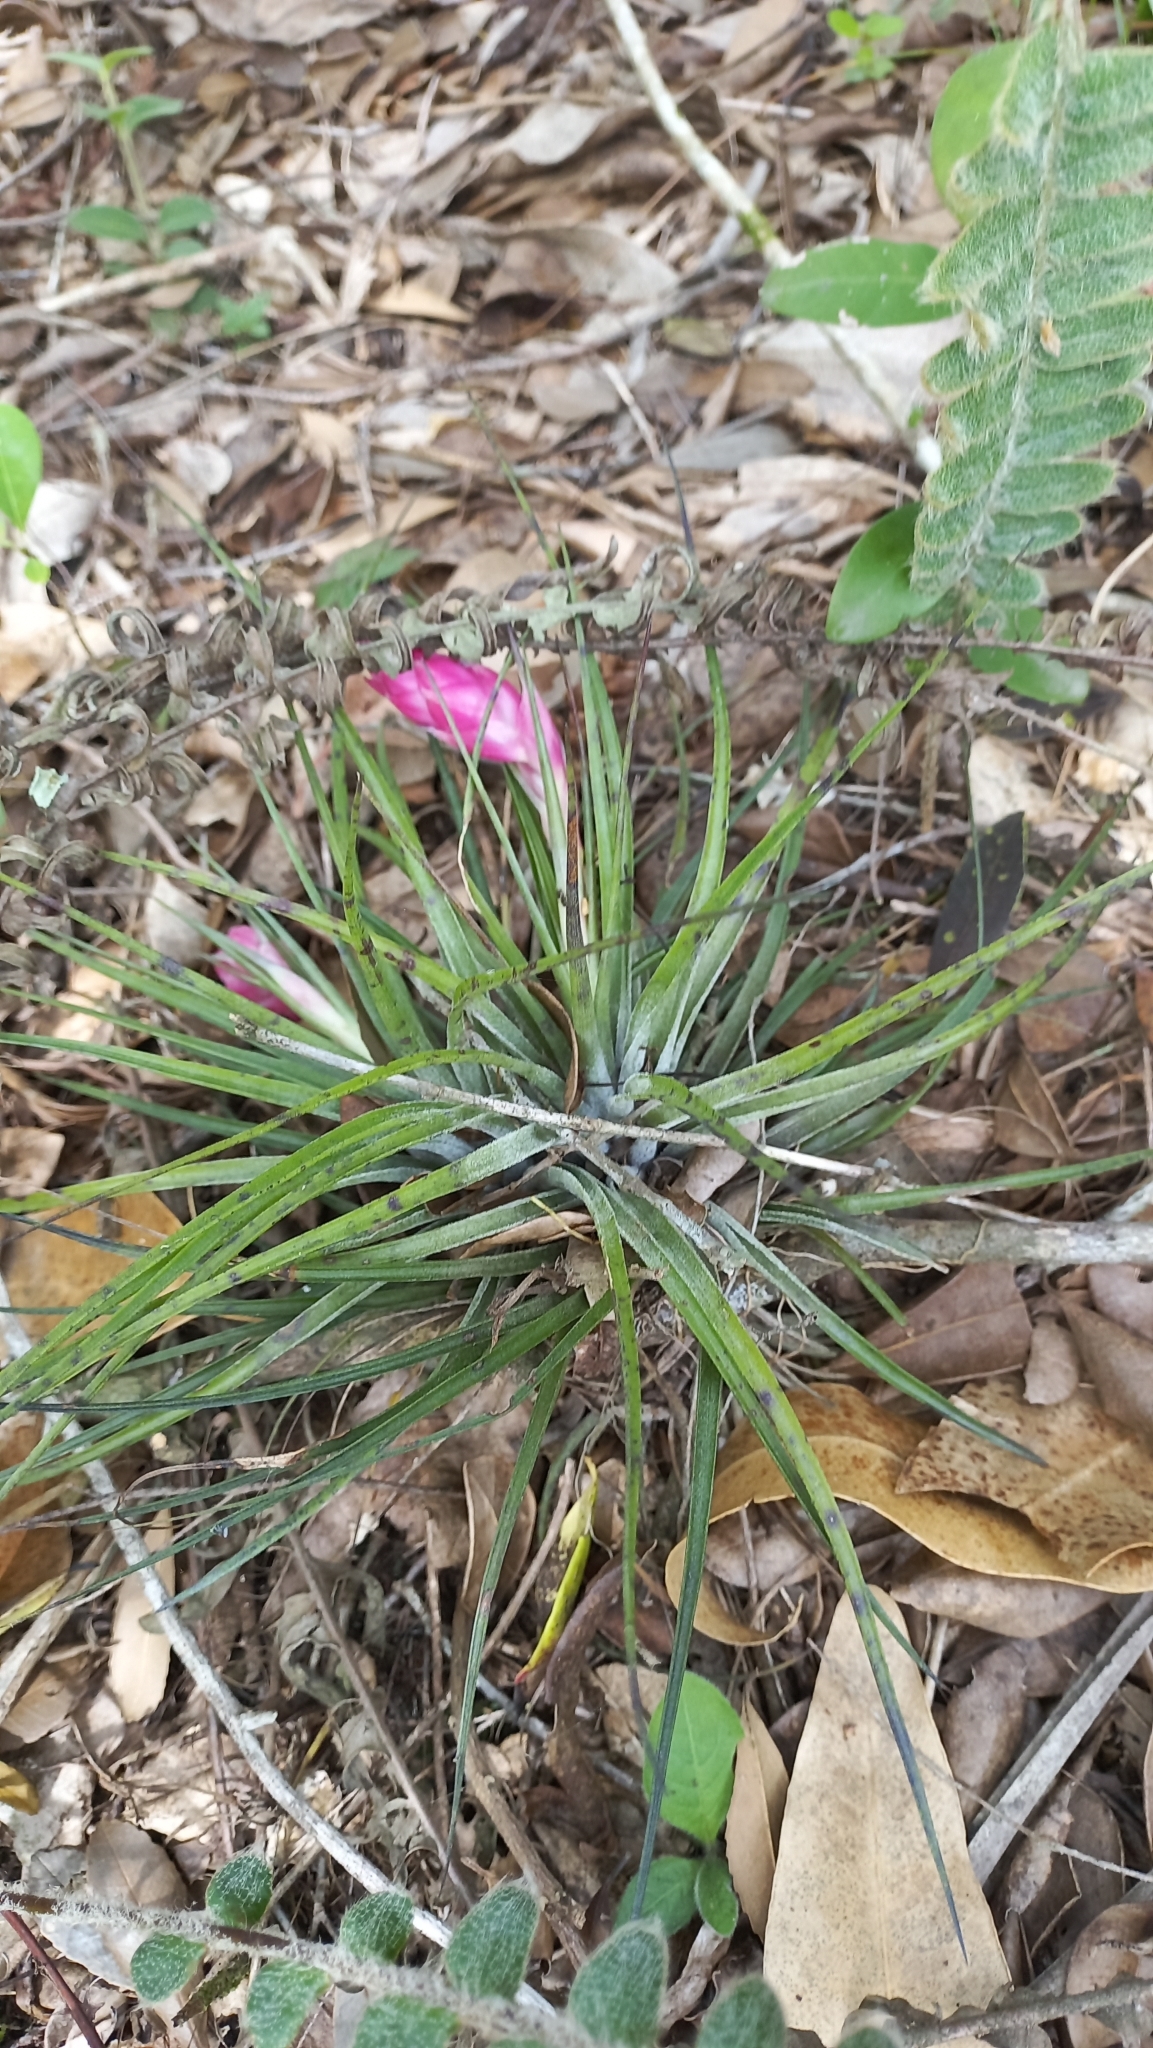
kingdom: Plantae
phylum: Tracheophyta
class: Liliopsida
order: Poales
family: Bromeliaceae
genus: Tillandsia
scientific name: Tillandsia stricta
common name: Airplant
